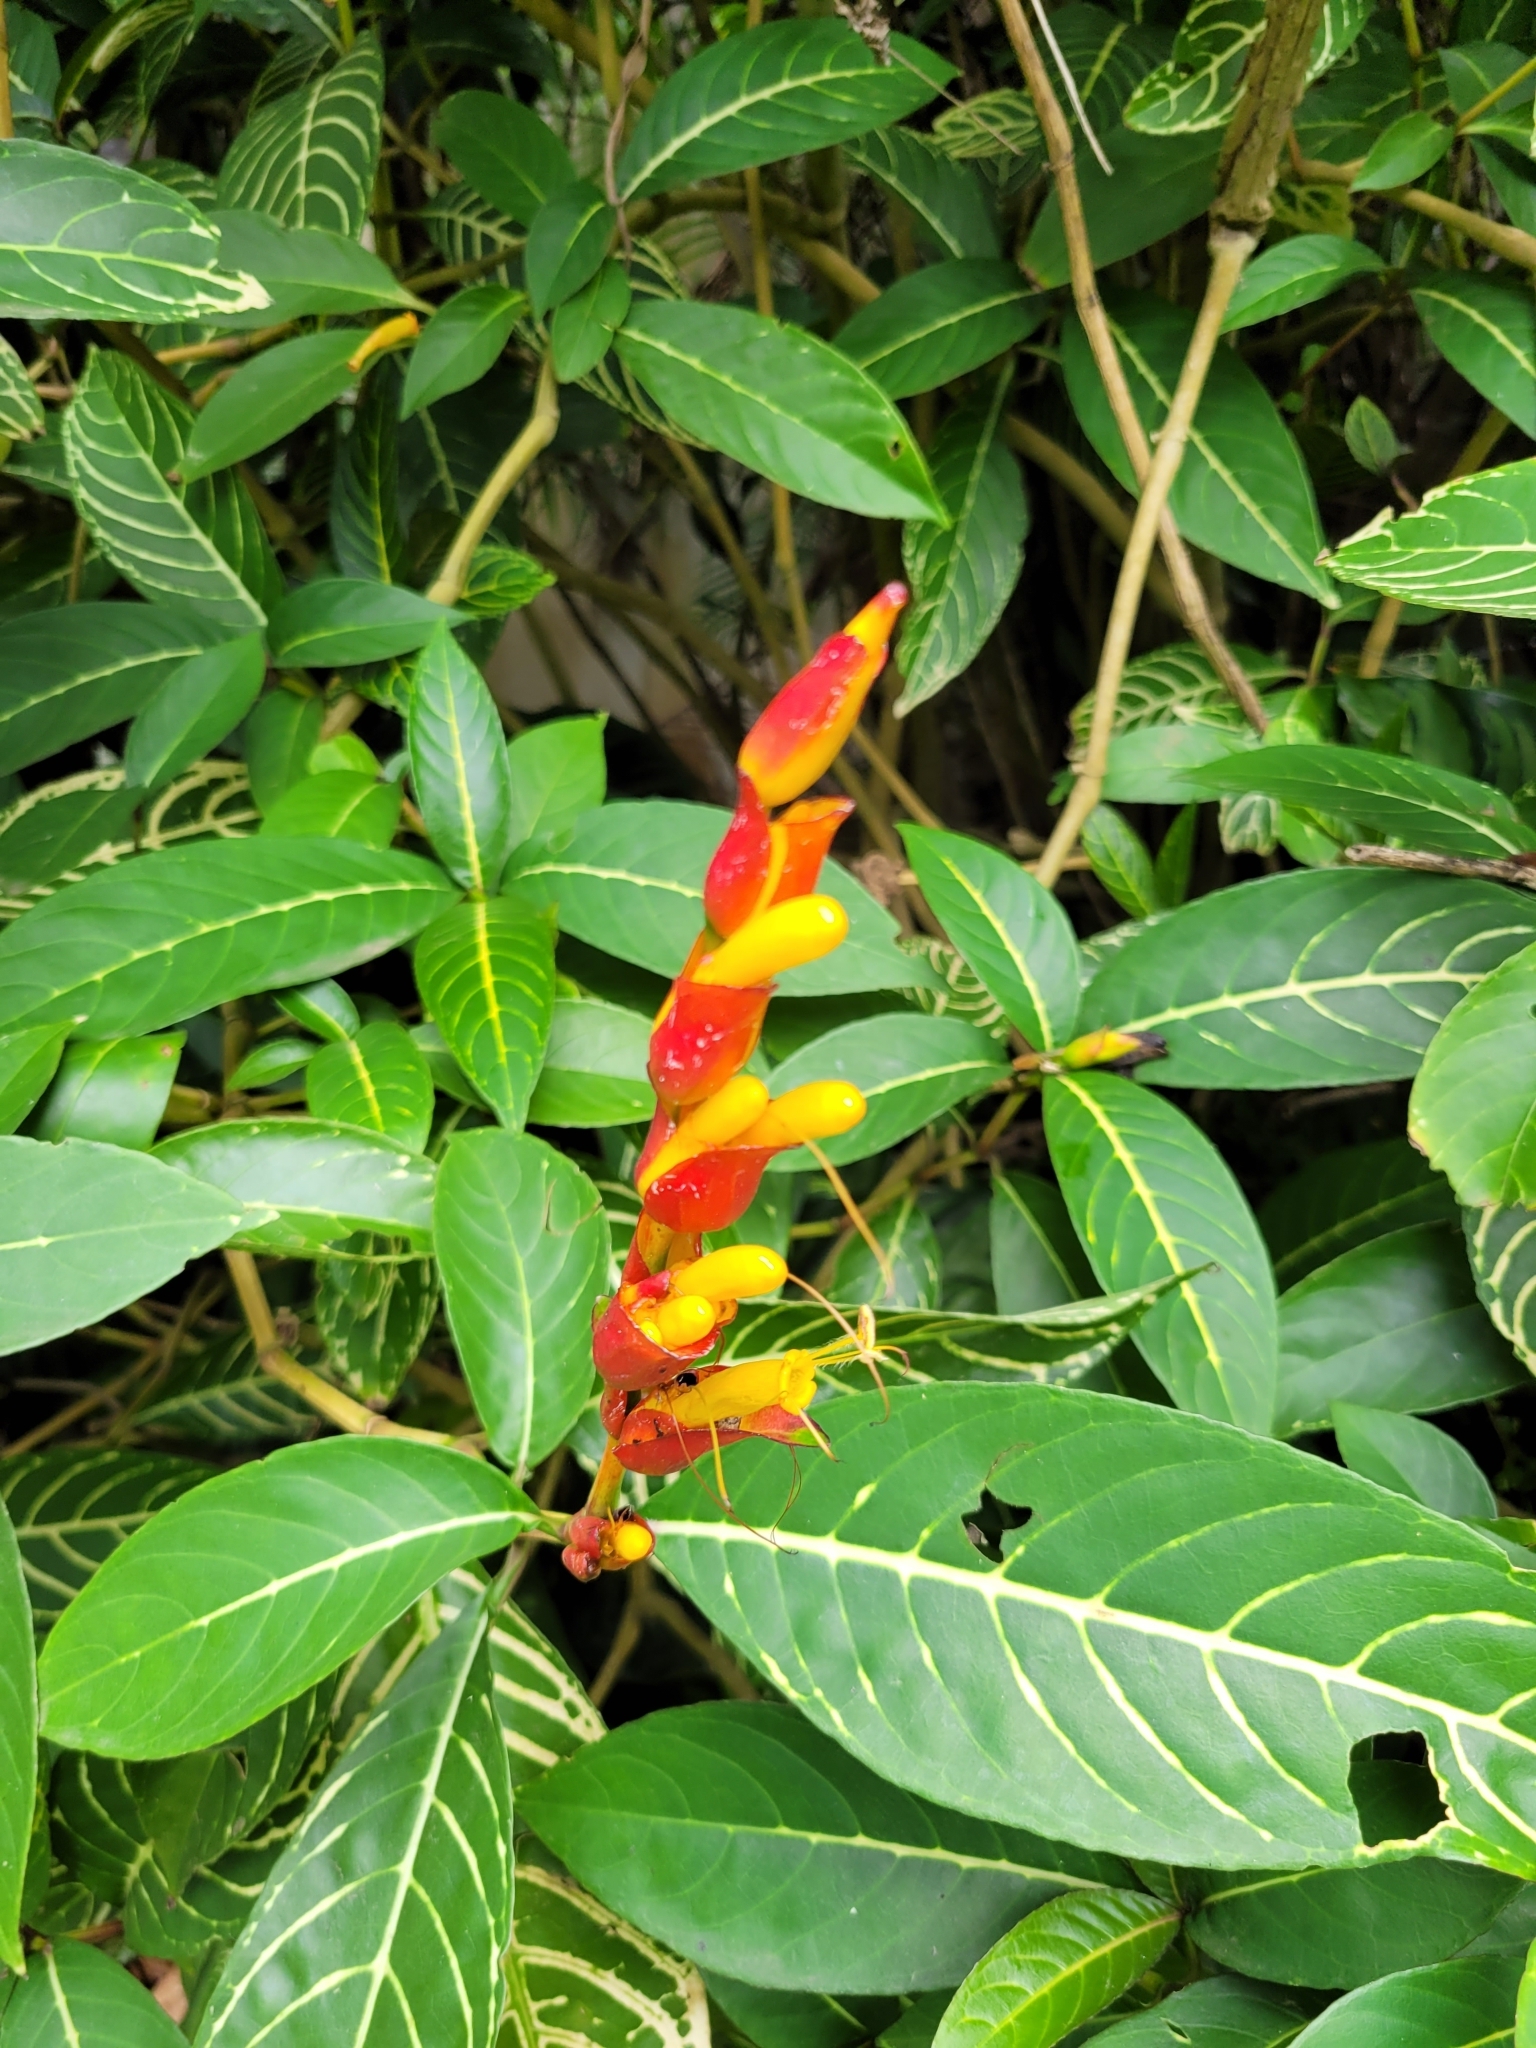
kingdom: Plantae
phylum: Tracheophyta
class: Magnoliopsida
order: Lamiales
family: Acanthaceae
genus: Sanchezia
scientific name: Sanchezia oblonga
